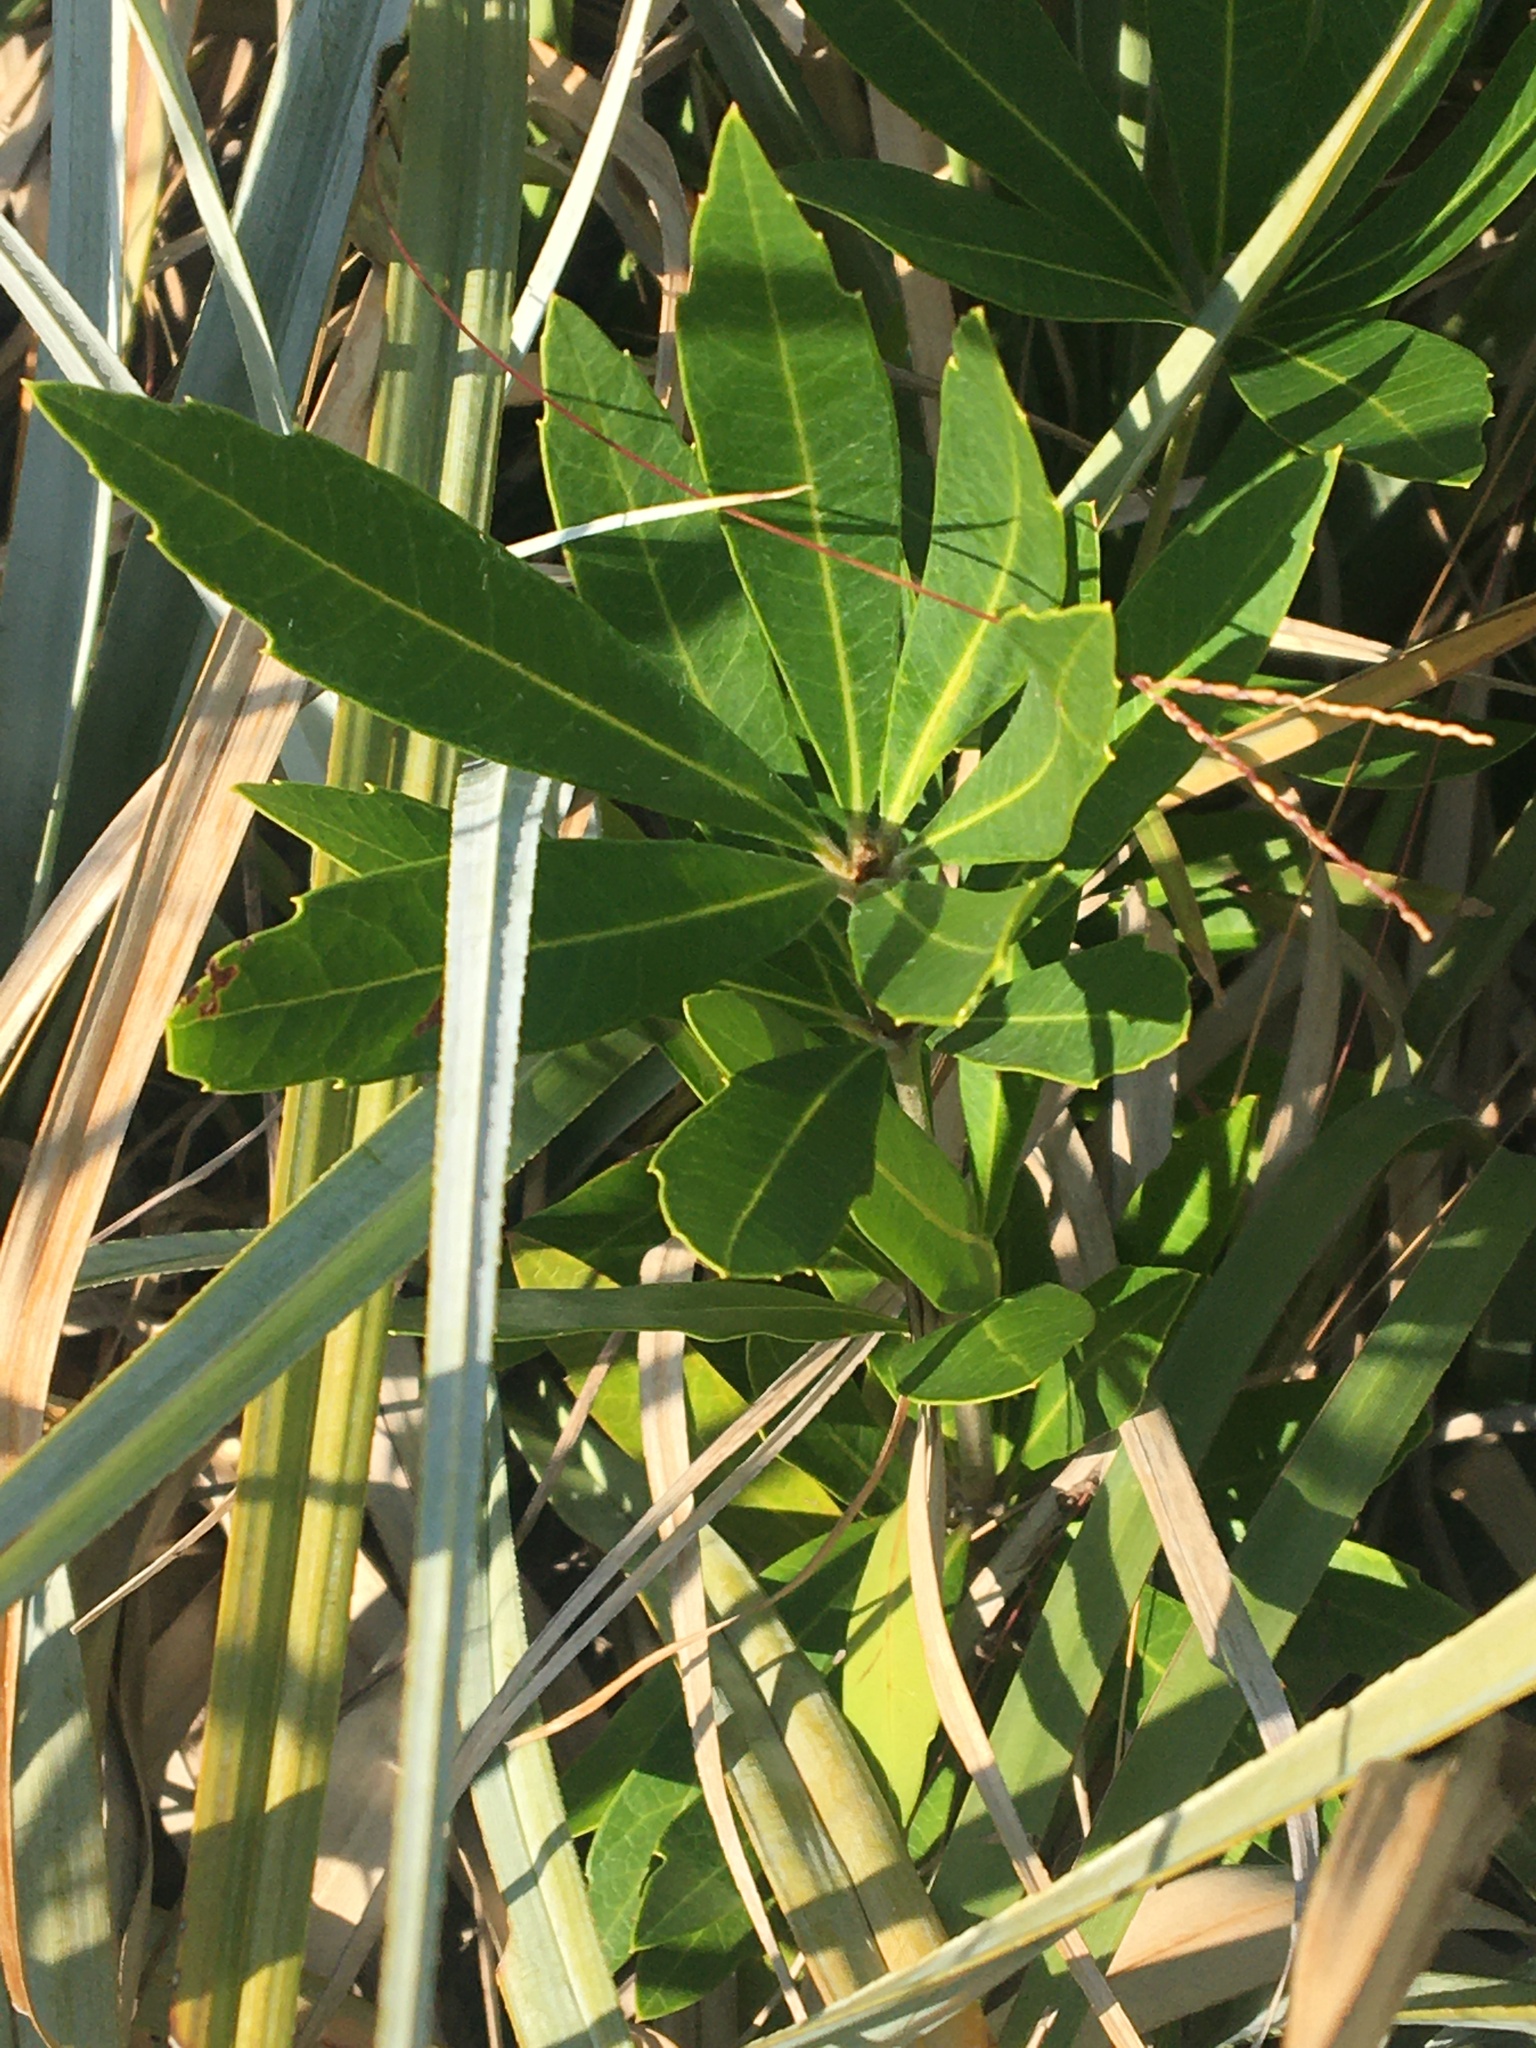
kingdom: Plantae
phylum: Tracheophyta
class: Magnoliopsida
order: Proteales
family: Proteaceae
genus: Brabejum
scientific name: Brabejum stellatifolium
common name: Wild almond
